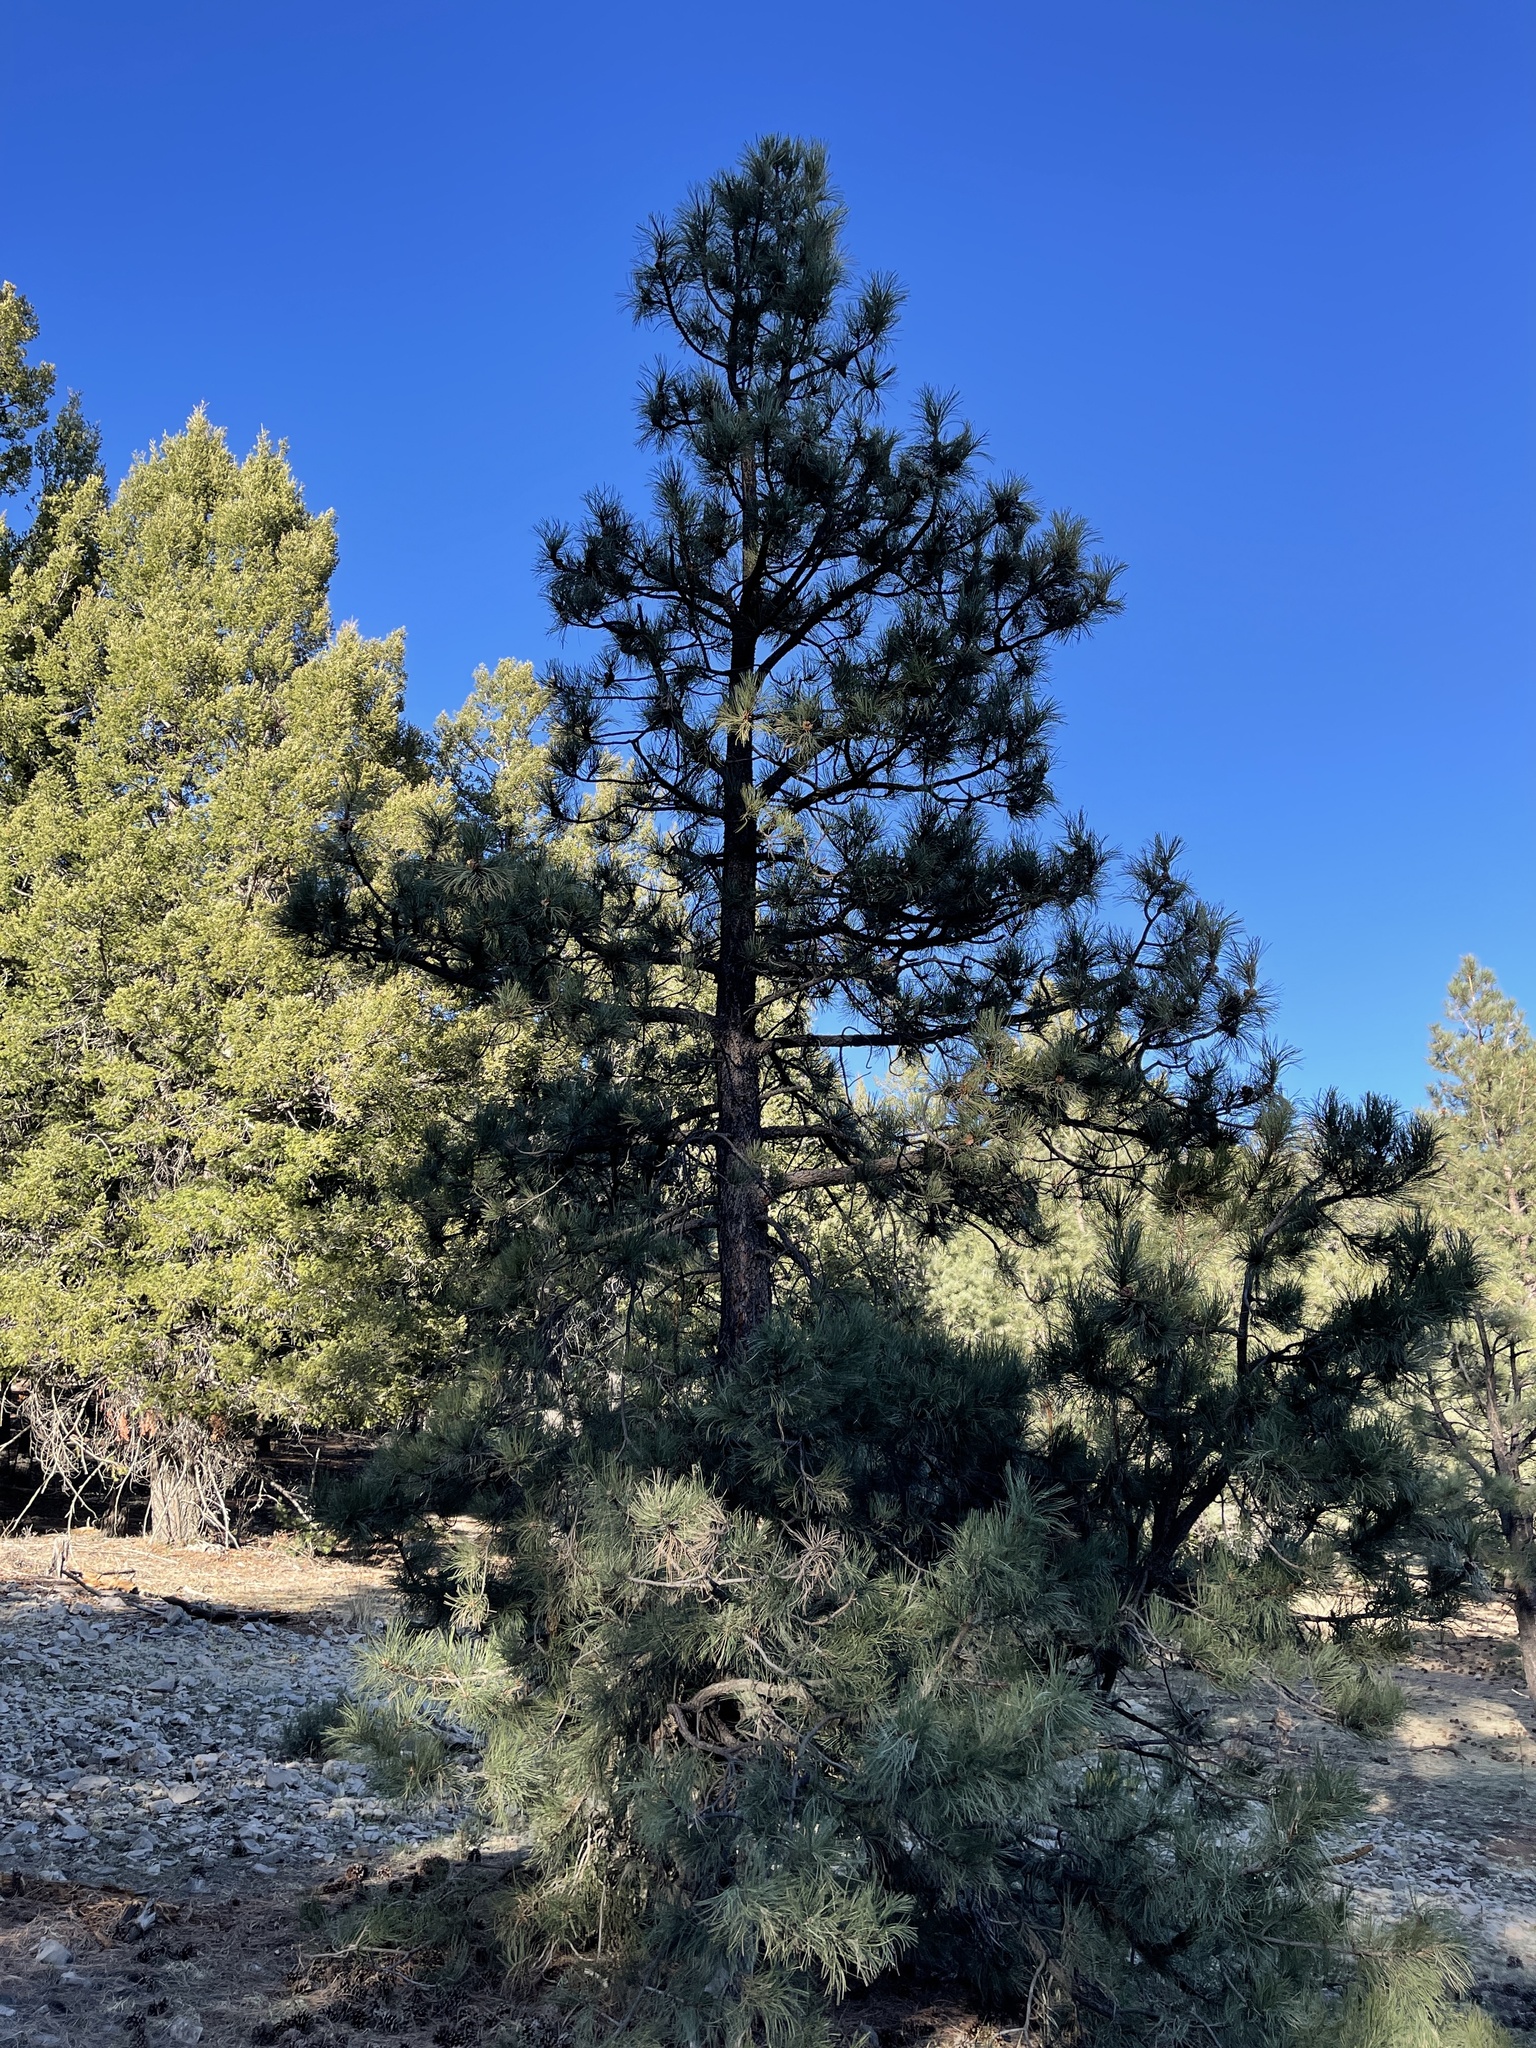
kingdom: Plantae
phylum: Tracheophyta
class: Pinopsida
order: Pinales
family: Pinaceae
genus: Pinus
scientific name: Pinus ponderosa
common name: Western yellow-pine
